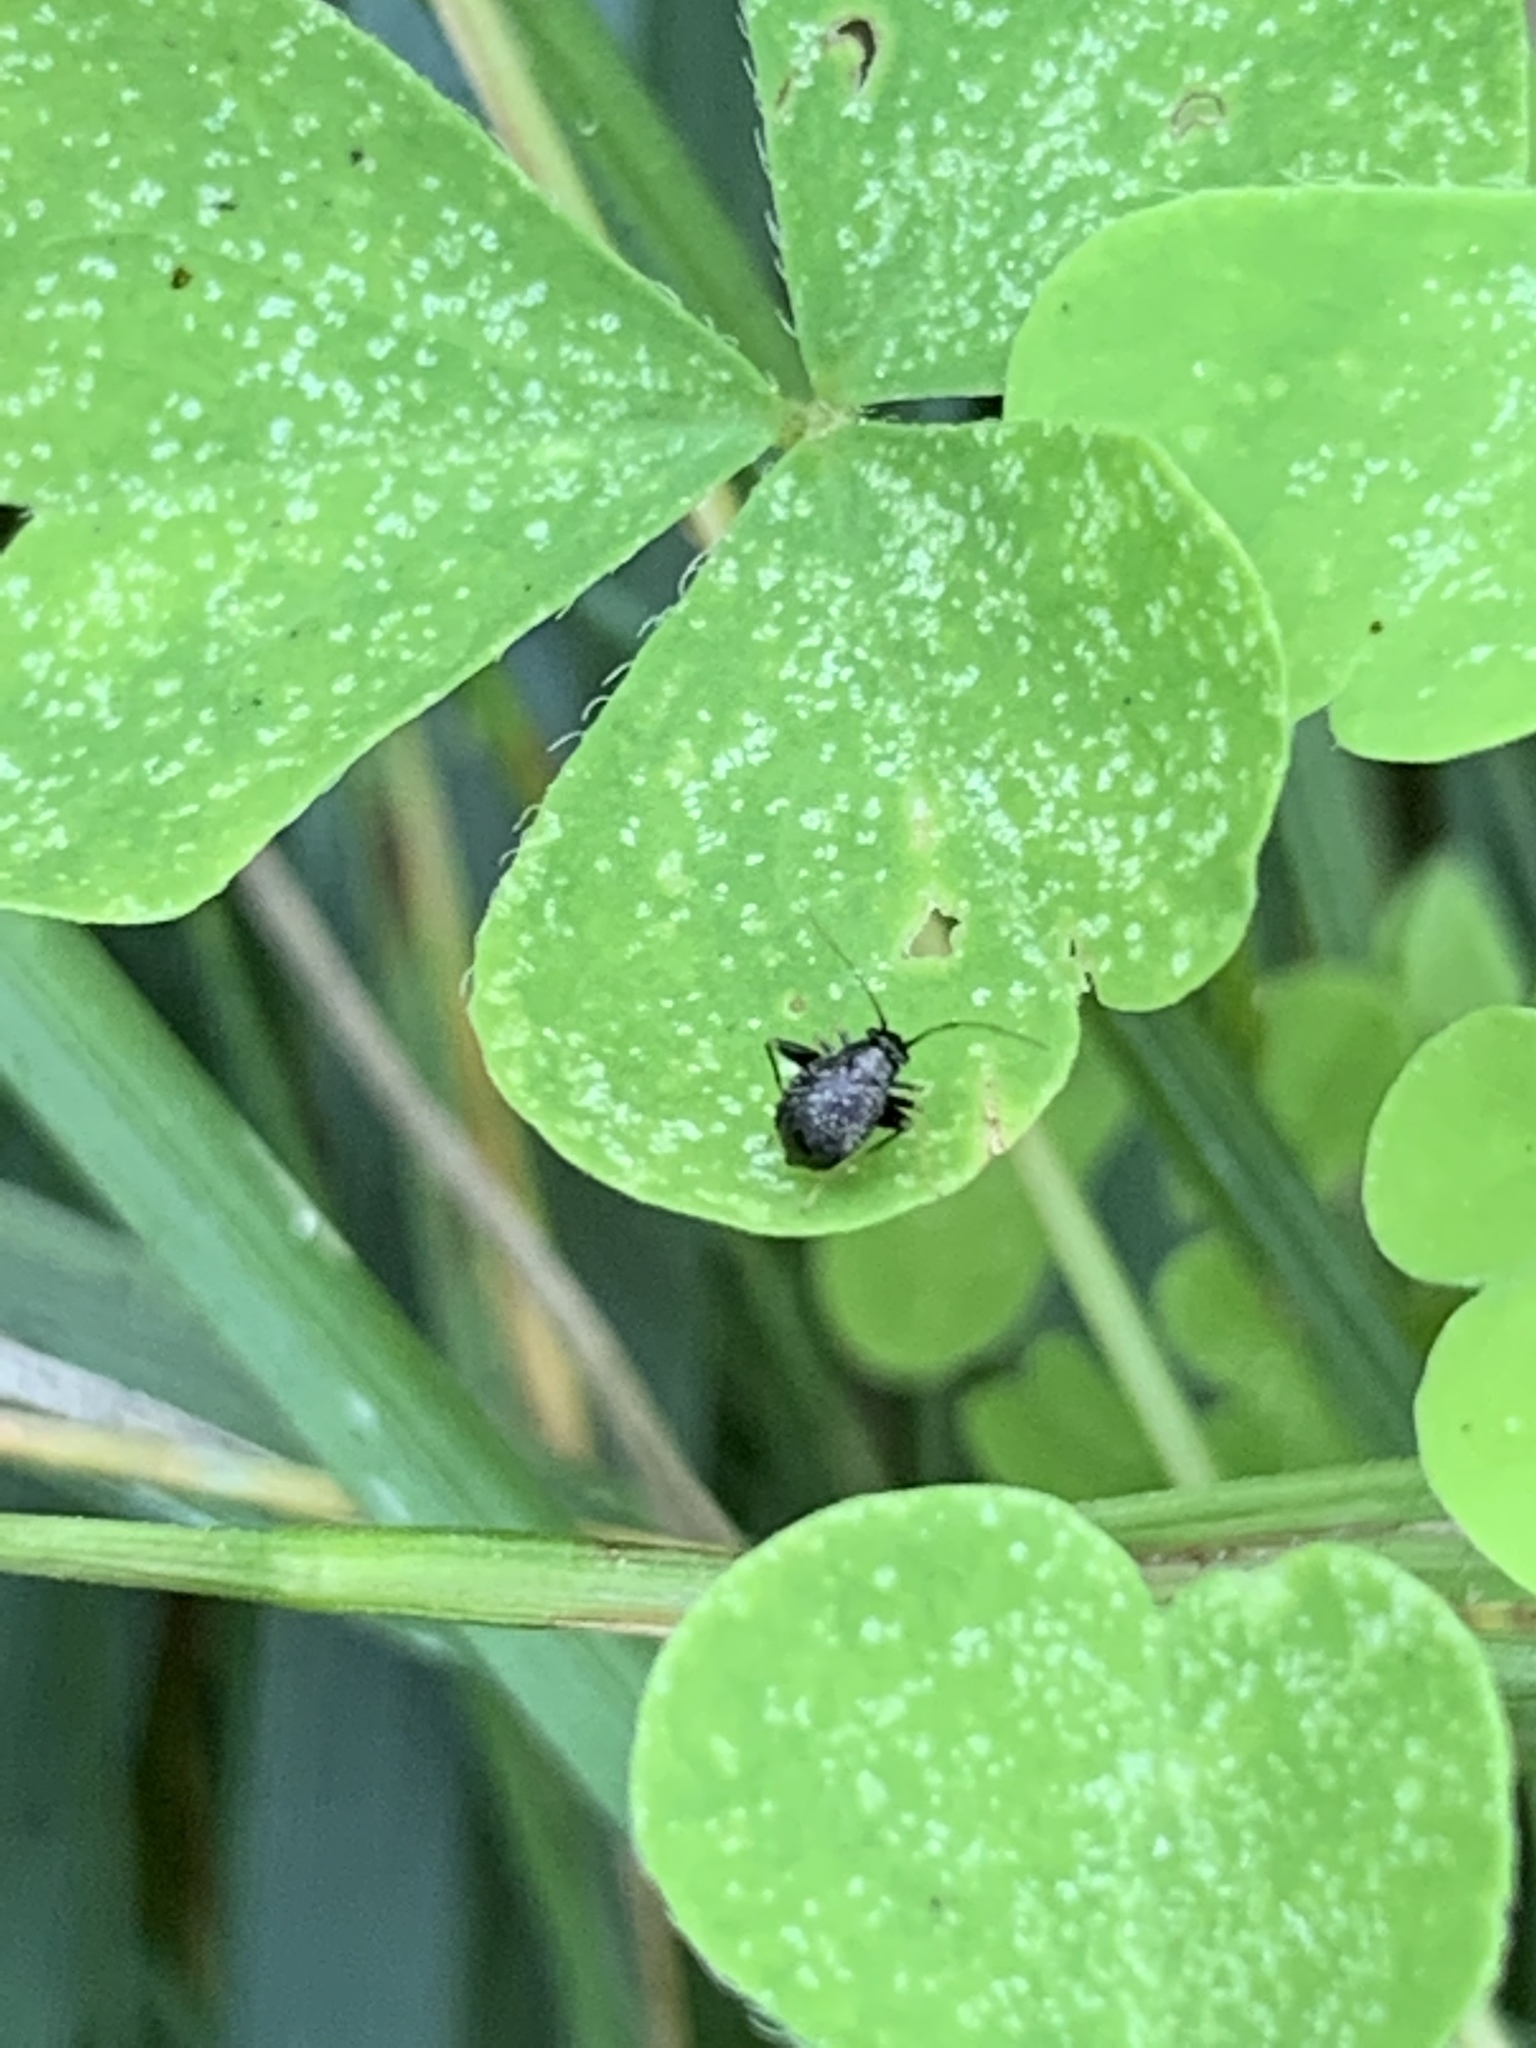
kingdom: Animalia
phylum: Arthropoda
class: Insecta
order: Hemiptera
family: Miridae
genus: Microtechnites
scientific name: Microtechnites bractatus
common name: Garden fleahopper
